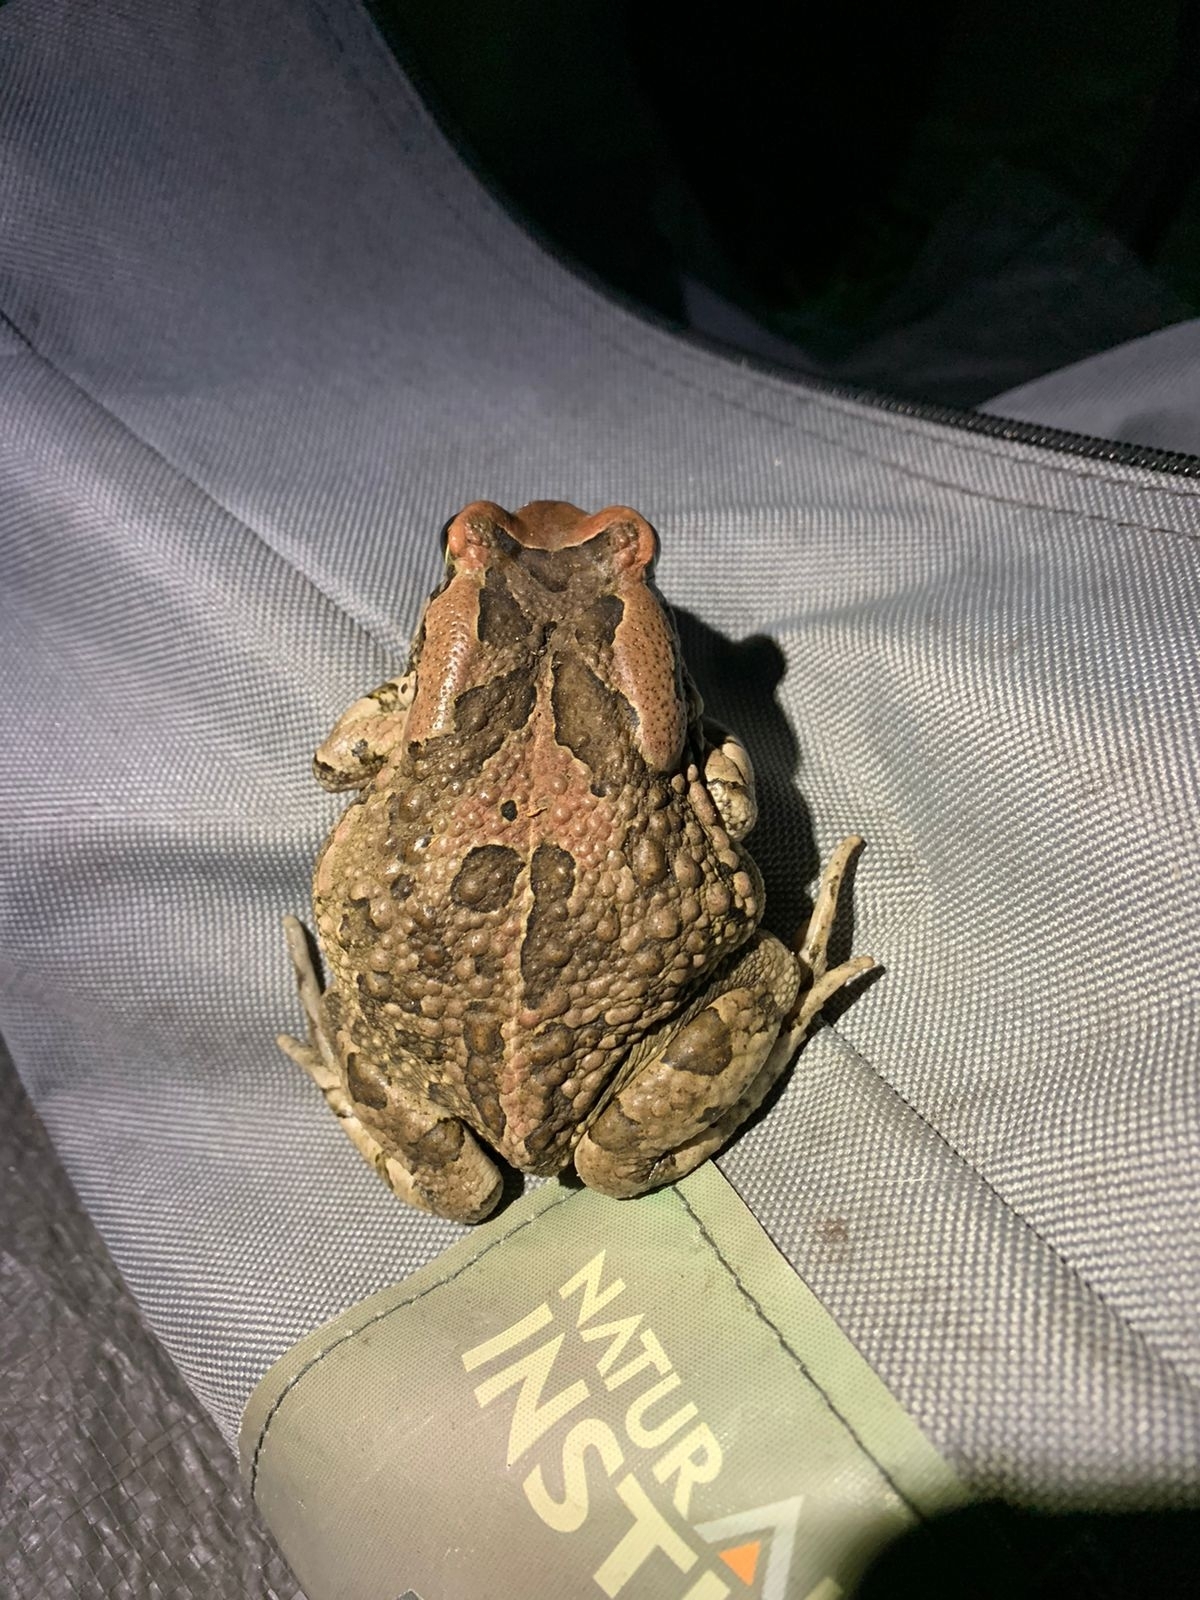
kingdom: Animalia
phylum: Chordata
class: Amphibia
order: Anura
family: Bufonidae
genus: Sclerophrys
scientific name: Sclerophrys capensis
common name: Ranger’s toad
